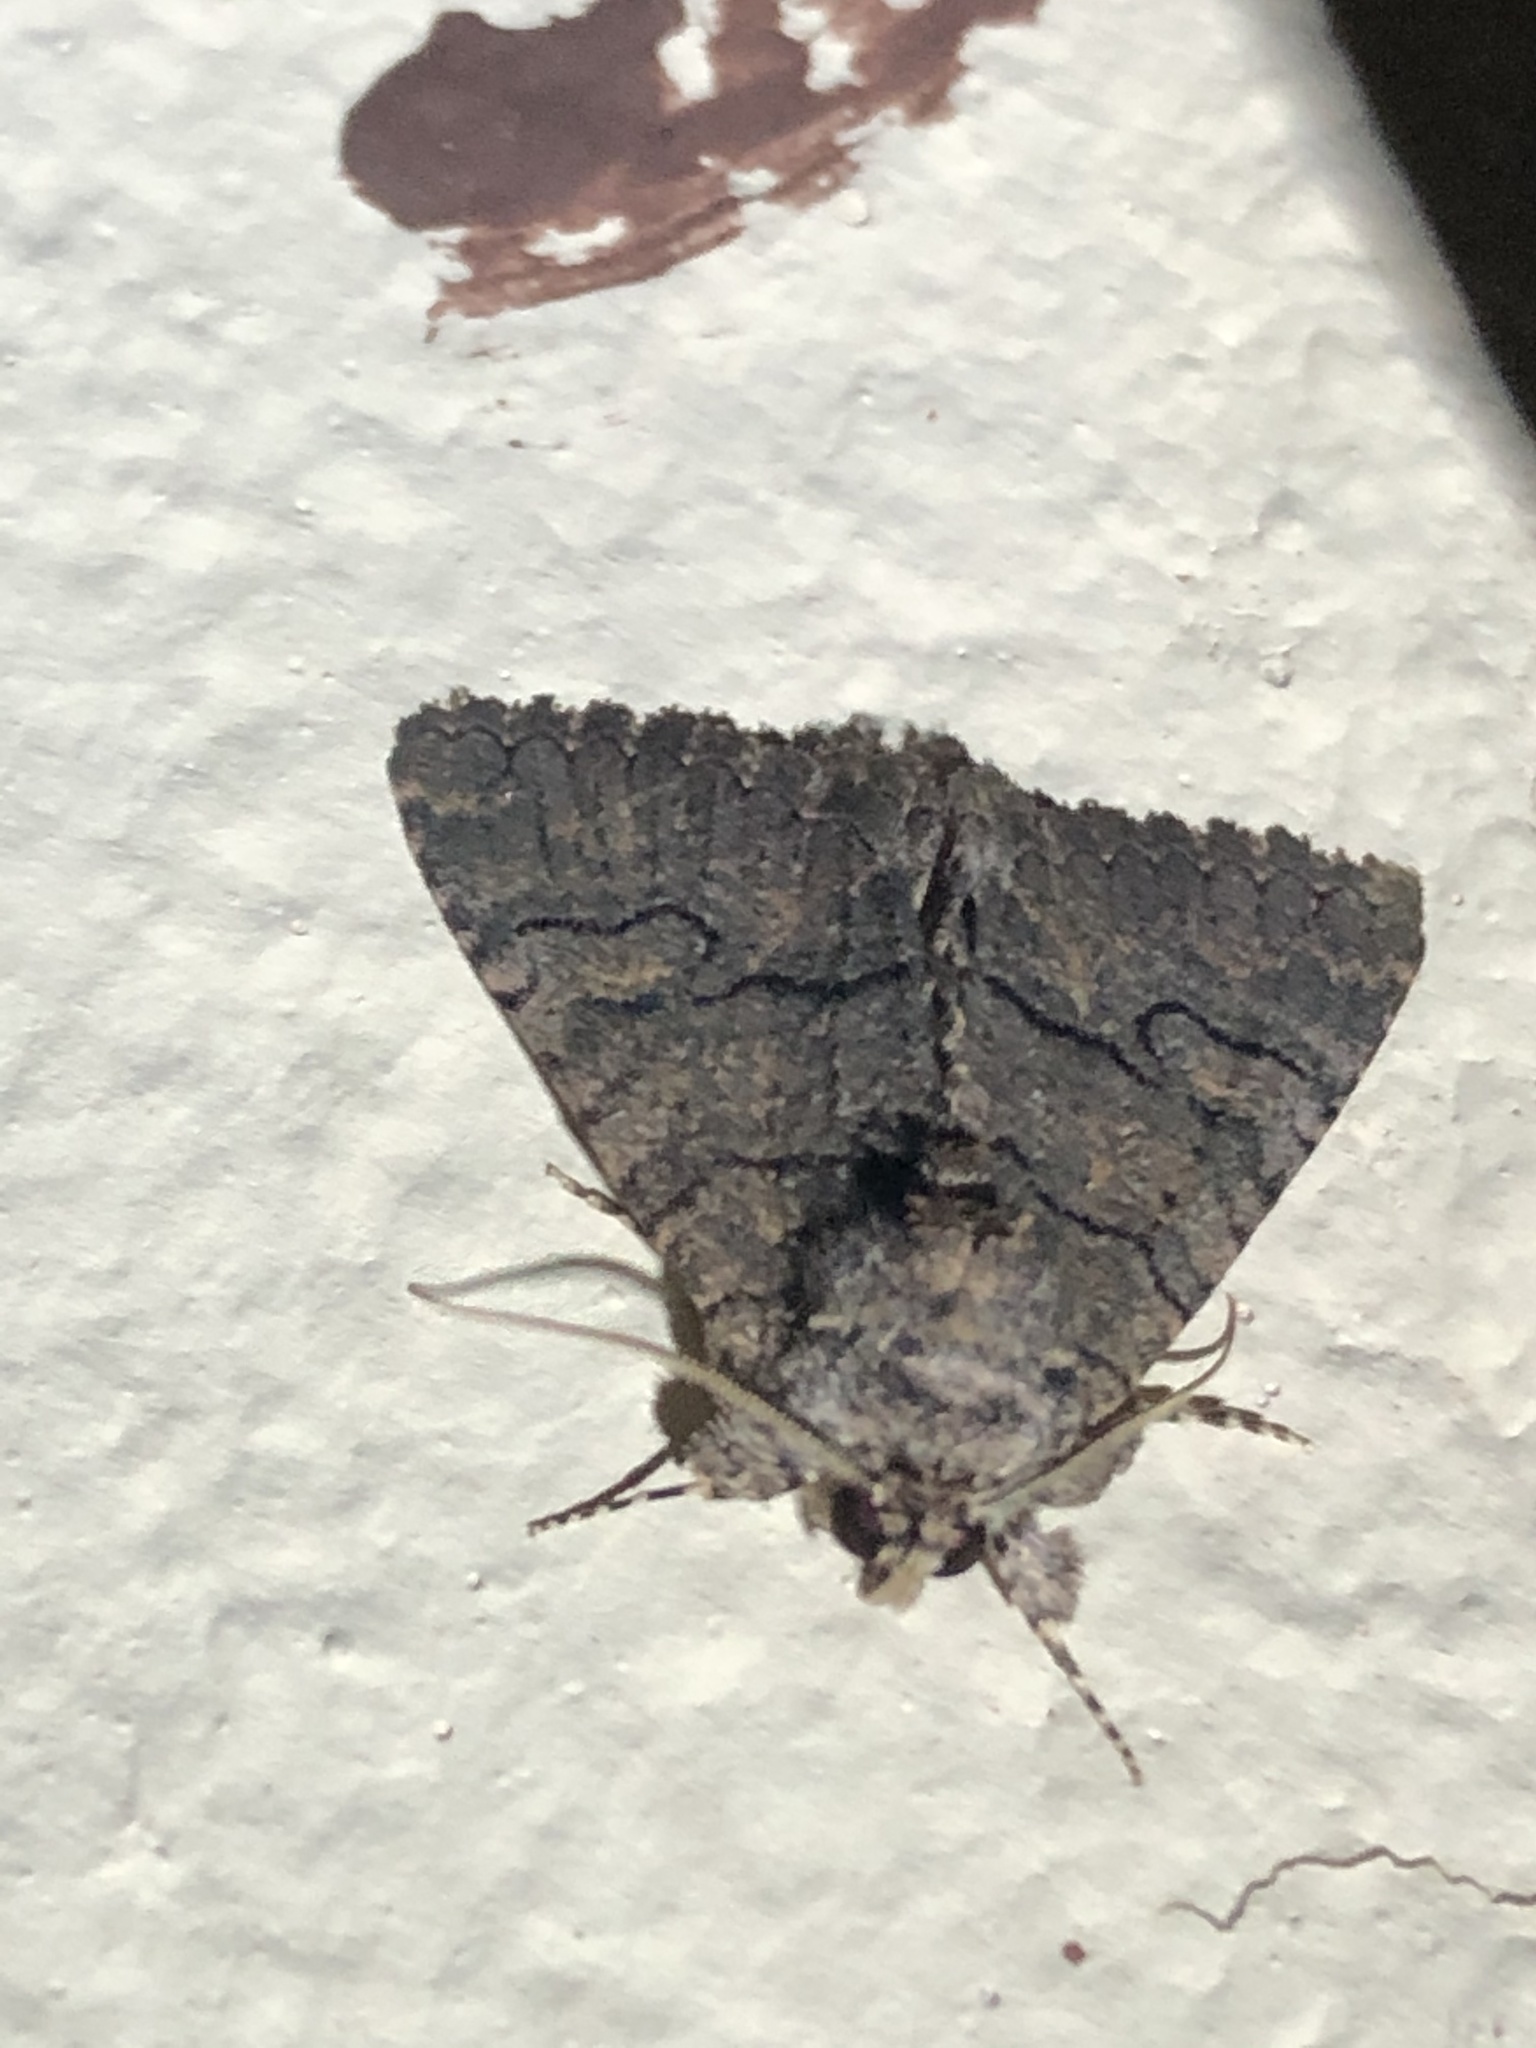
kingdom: Animalia
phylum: Arthropoda
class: Insecta
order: Lepidoptera
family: Erebidae
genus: Elousa
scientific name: Elousa mima
